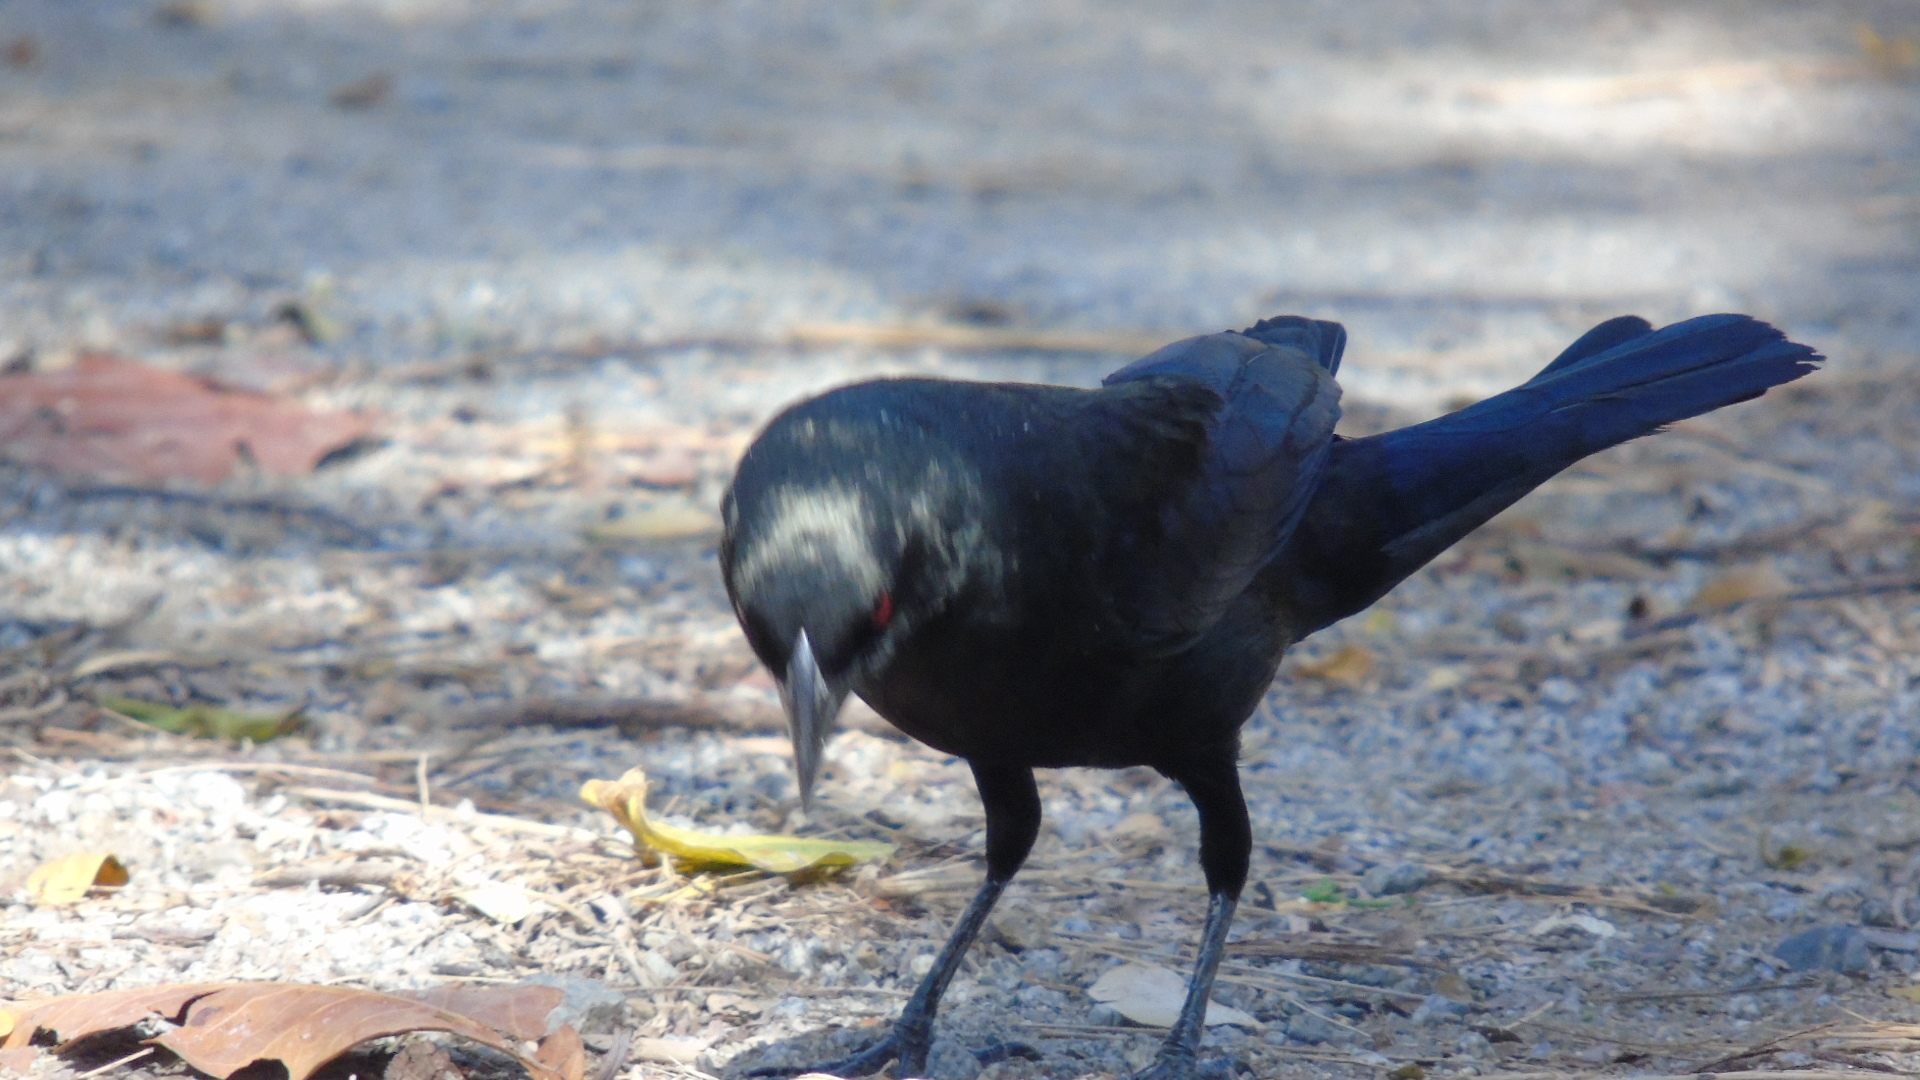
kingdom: Animalia
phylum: Chordata
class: Aves
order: Passeriformes
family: Icteridae
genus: Molothrus
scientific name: Molothrus aeneus
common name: Bronzed cowbird
